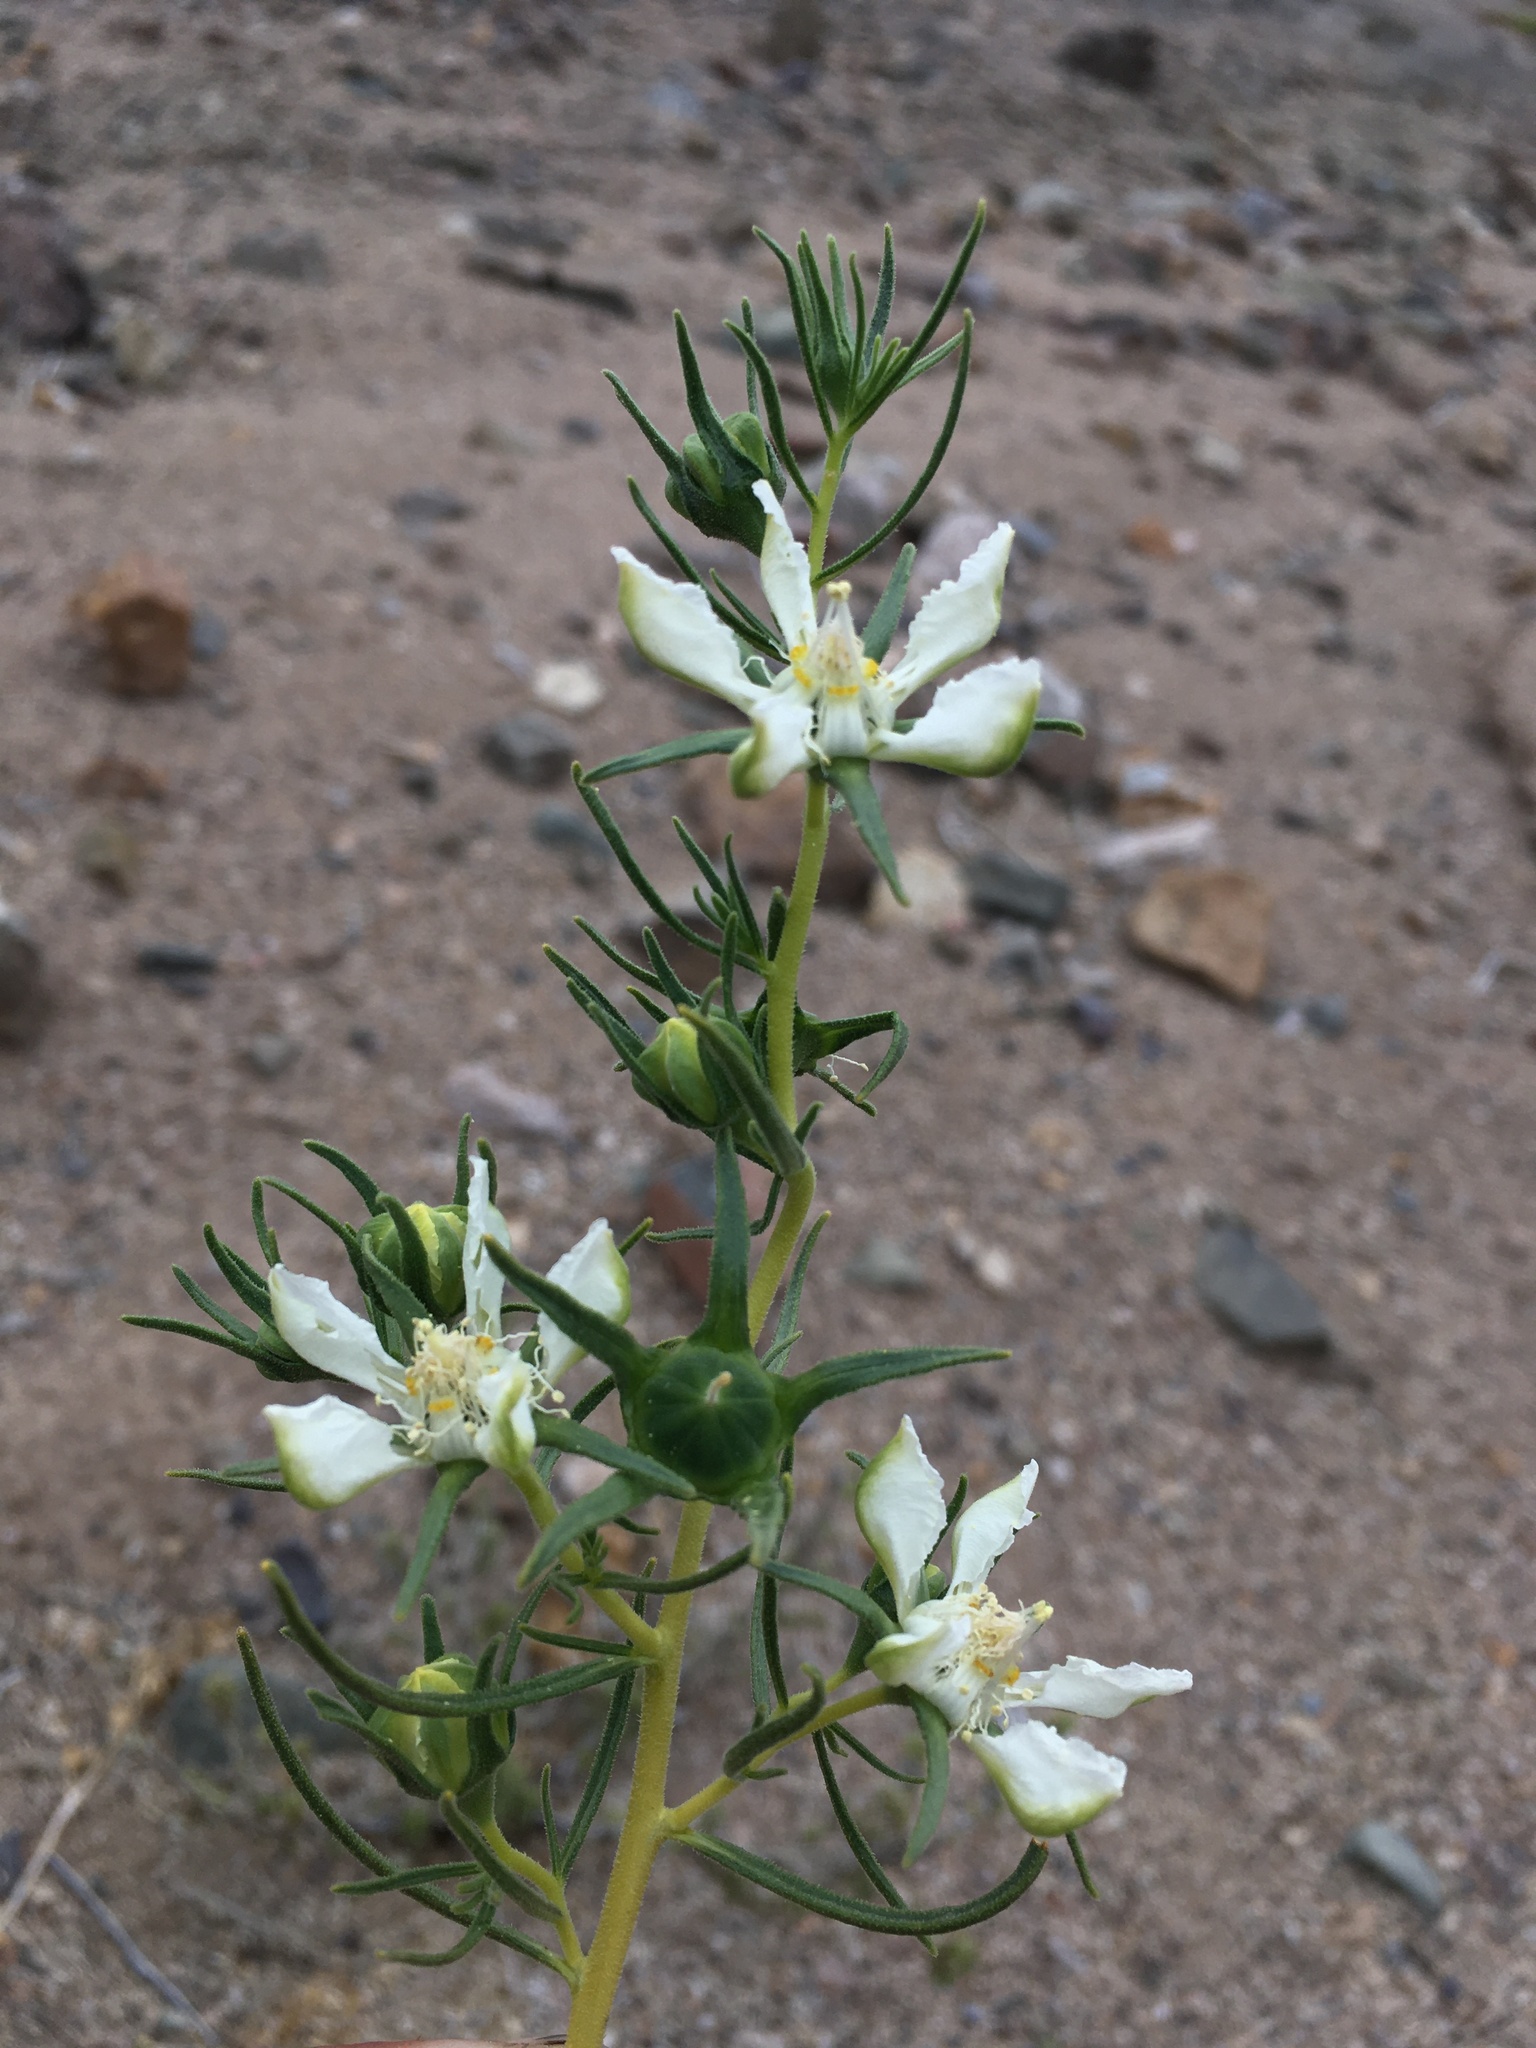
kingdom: Plantae
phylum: Tracheophyta
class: Magnoliopsida
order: Cornales
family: Loasaceae
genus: Huidobria
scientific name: Huidobria chilensis
